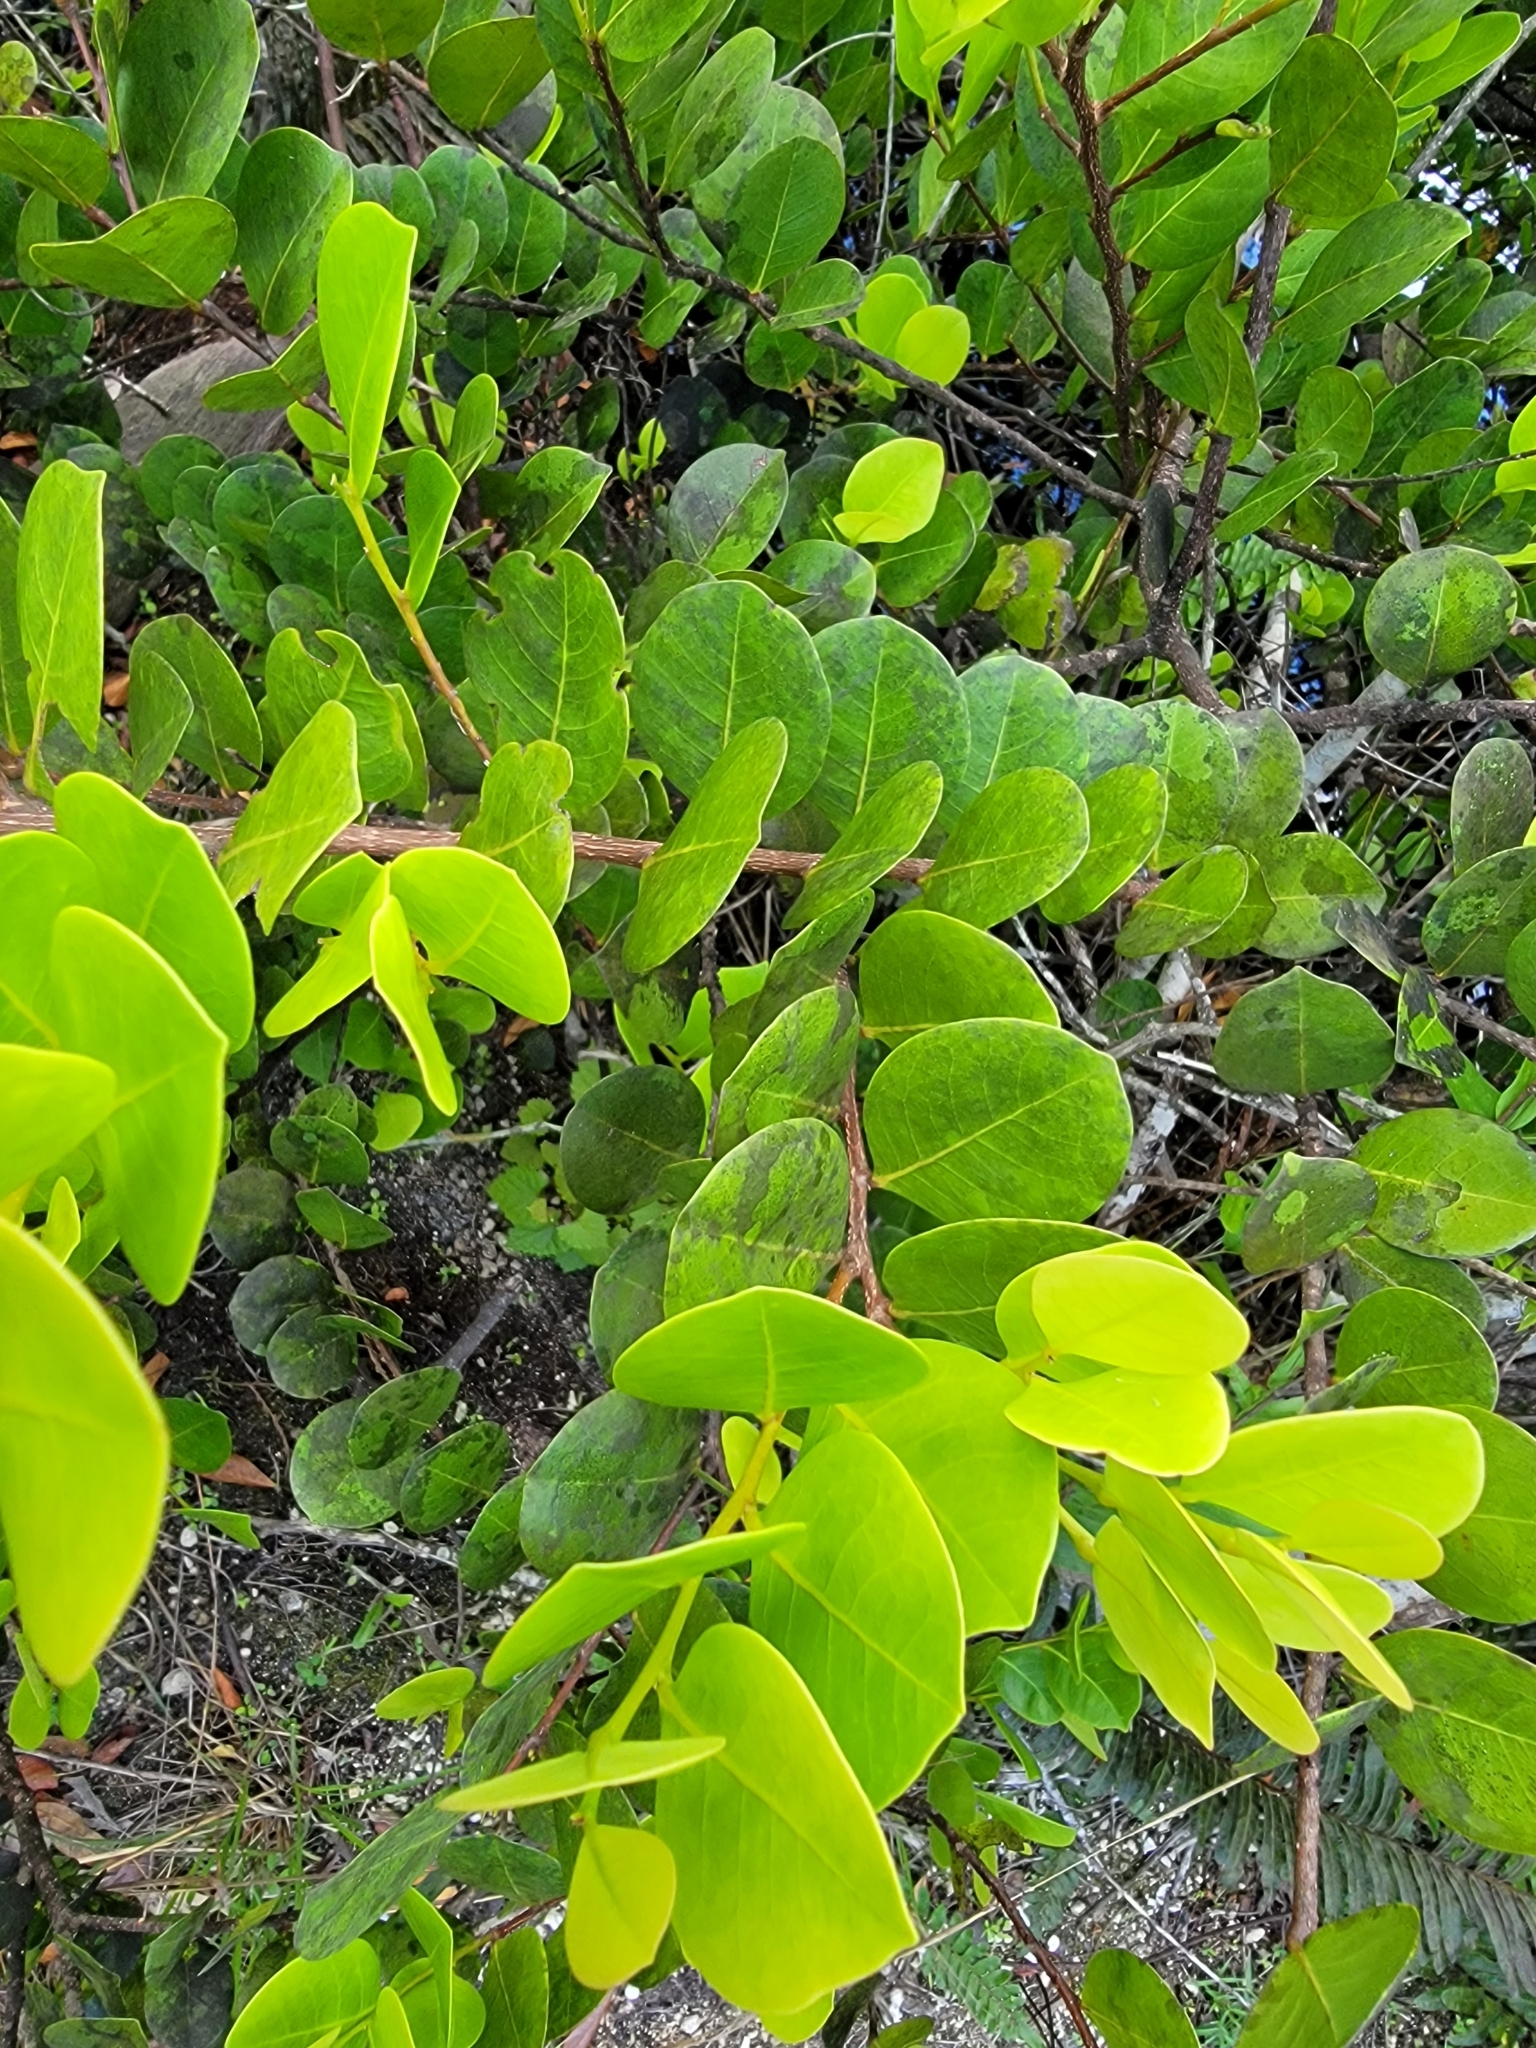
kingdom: Plantae
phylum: Tracheophyta
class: Magnoliopsida
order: Malpighiales
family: Chrysobalanaceae
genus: Chrysobalanus
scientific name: Chrysobalanus icaco
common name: Coco plum
